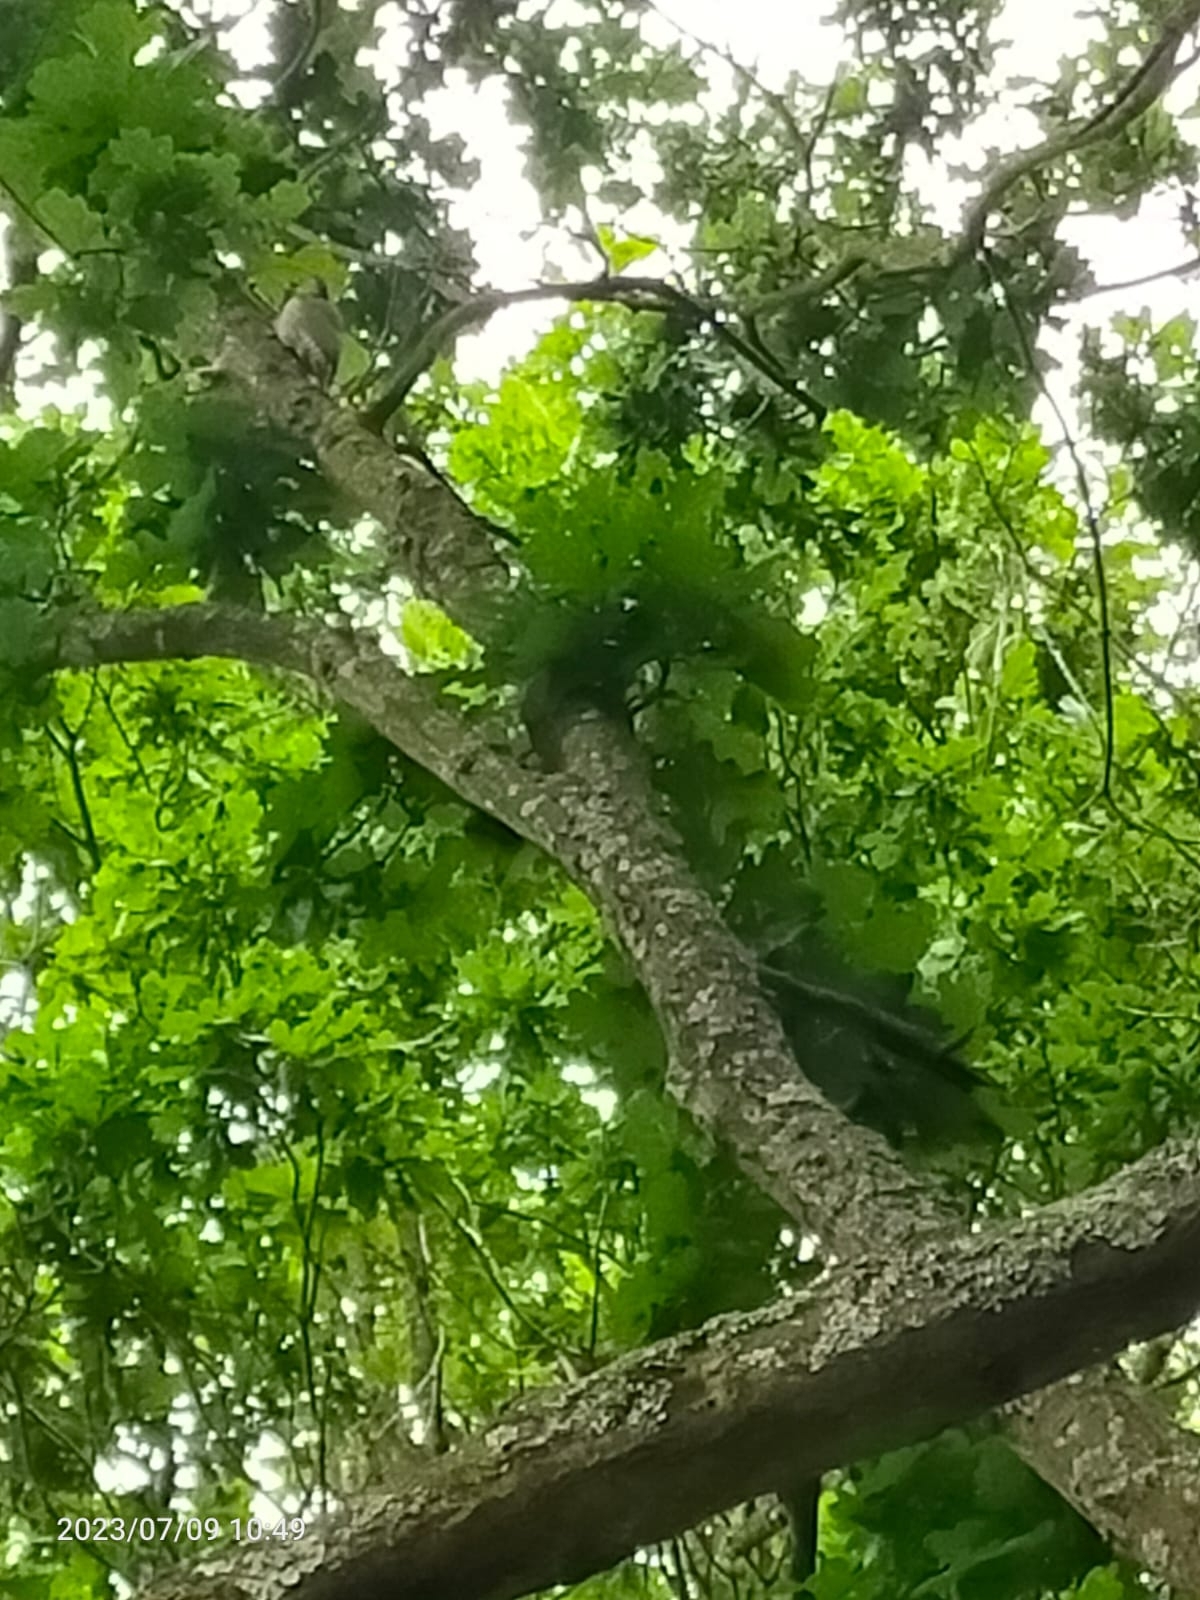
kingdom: Animalia
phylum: Chordata
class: Aves
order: Piciformes
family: Picidae
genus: Picus
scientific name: Picus viridis
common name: European green woodpecker
